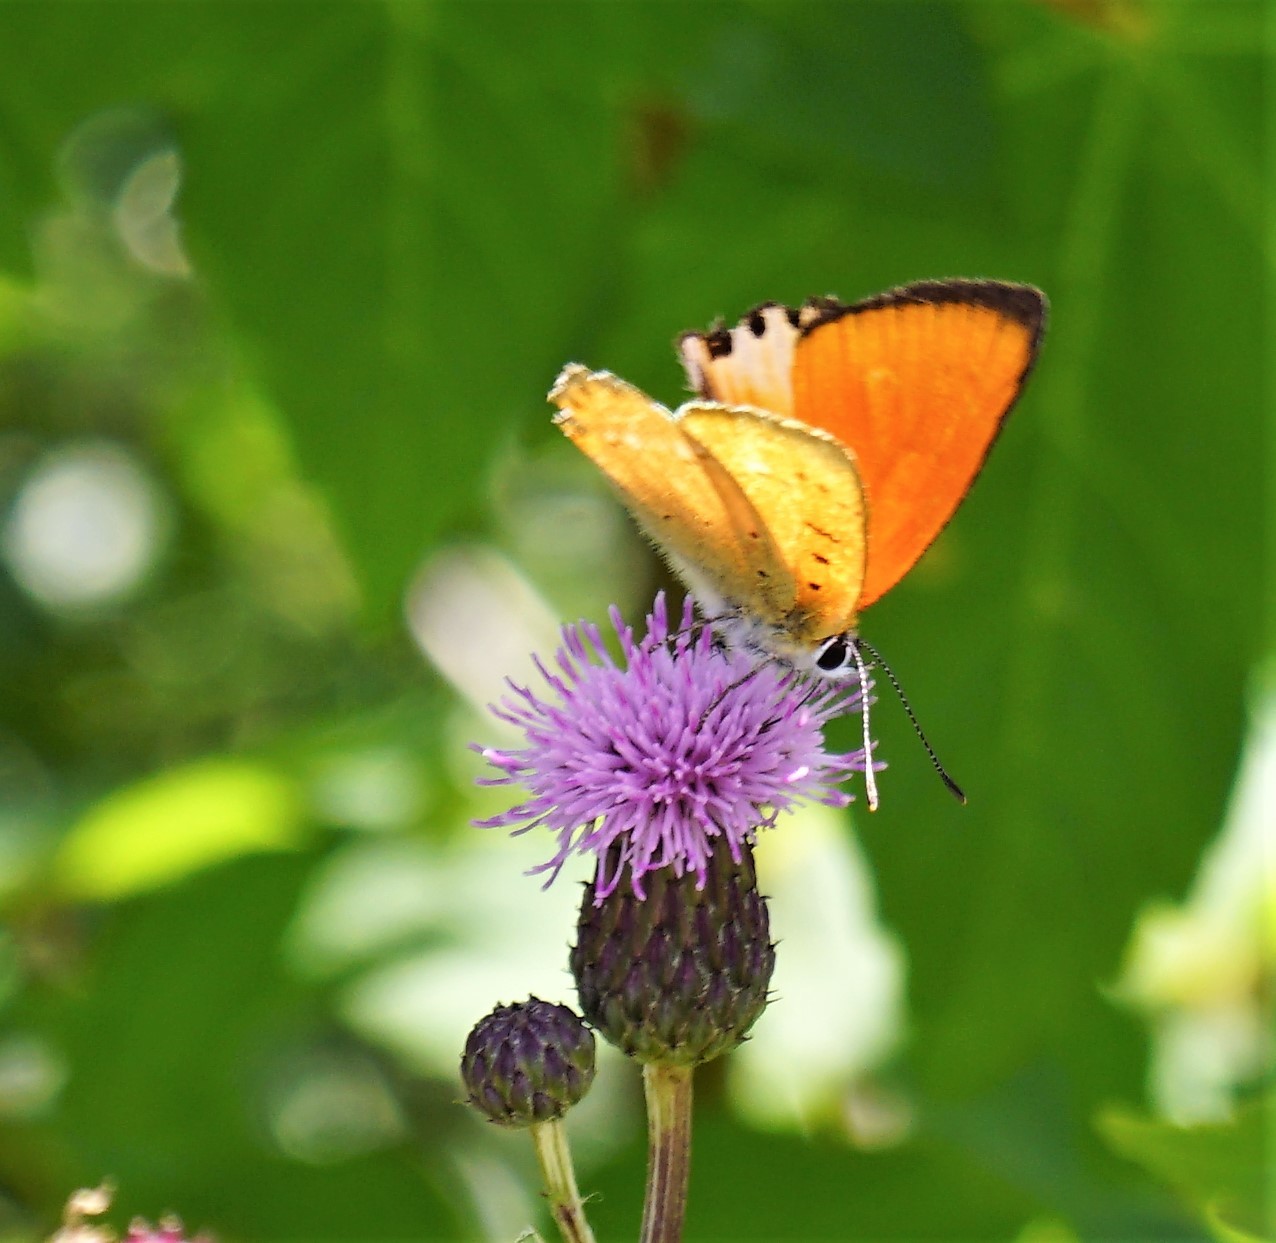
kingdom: Animalia
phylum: Arthropoda
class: Insecta
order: Lepidoptera
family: Lycaenidae
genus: Lycaena
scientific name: Lycaena virgaureae
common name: Scarce copper
